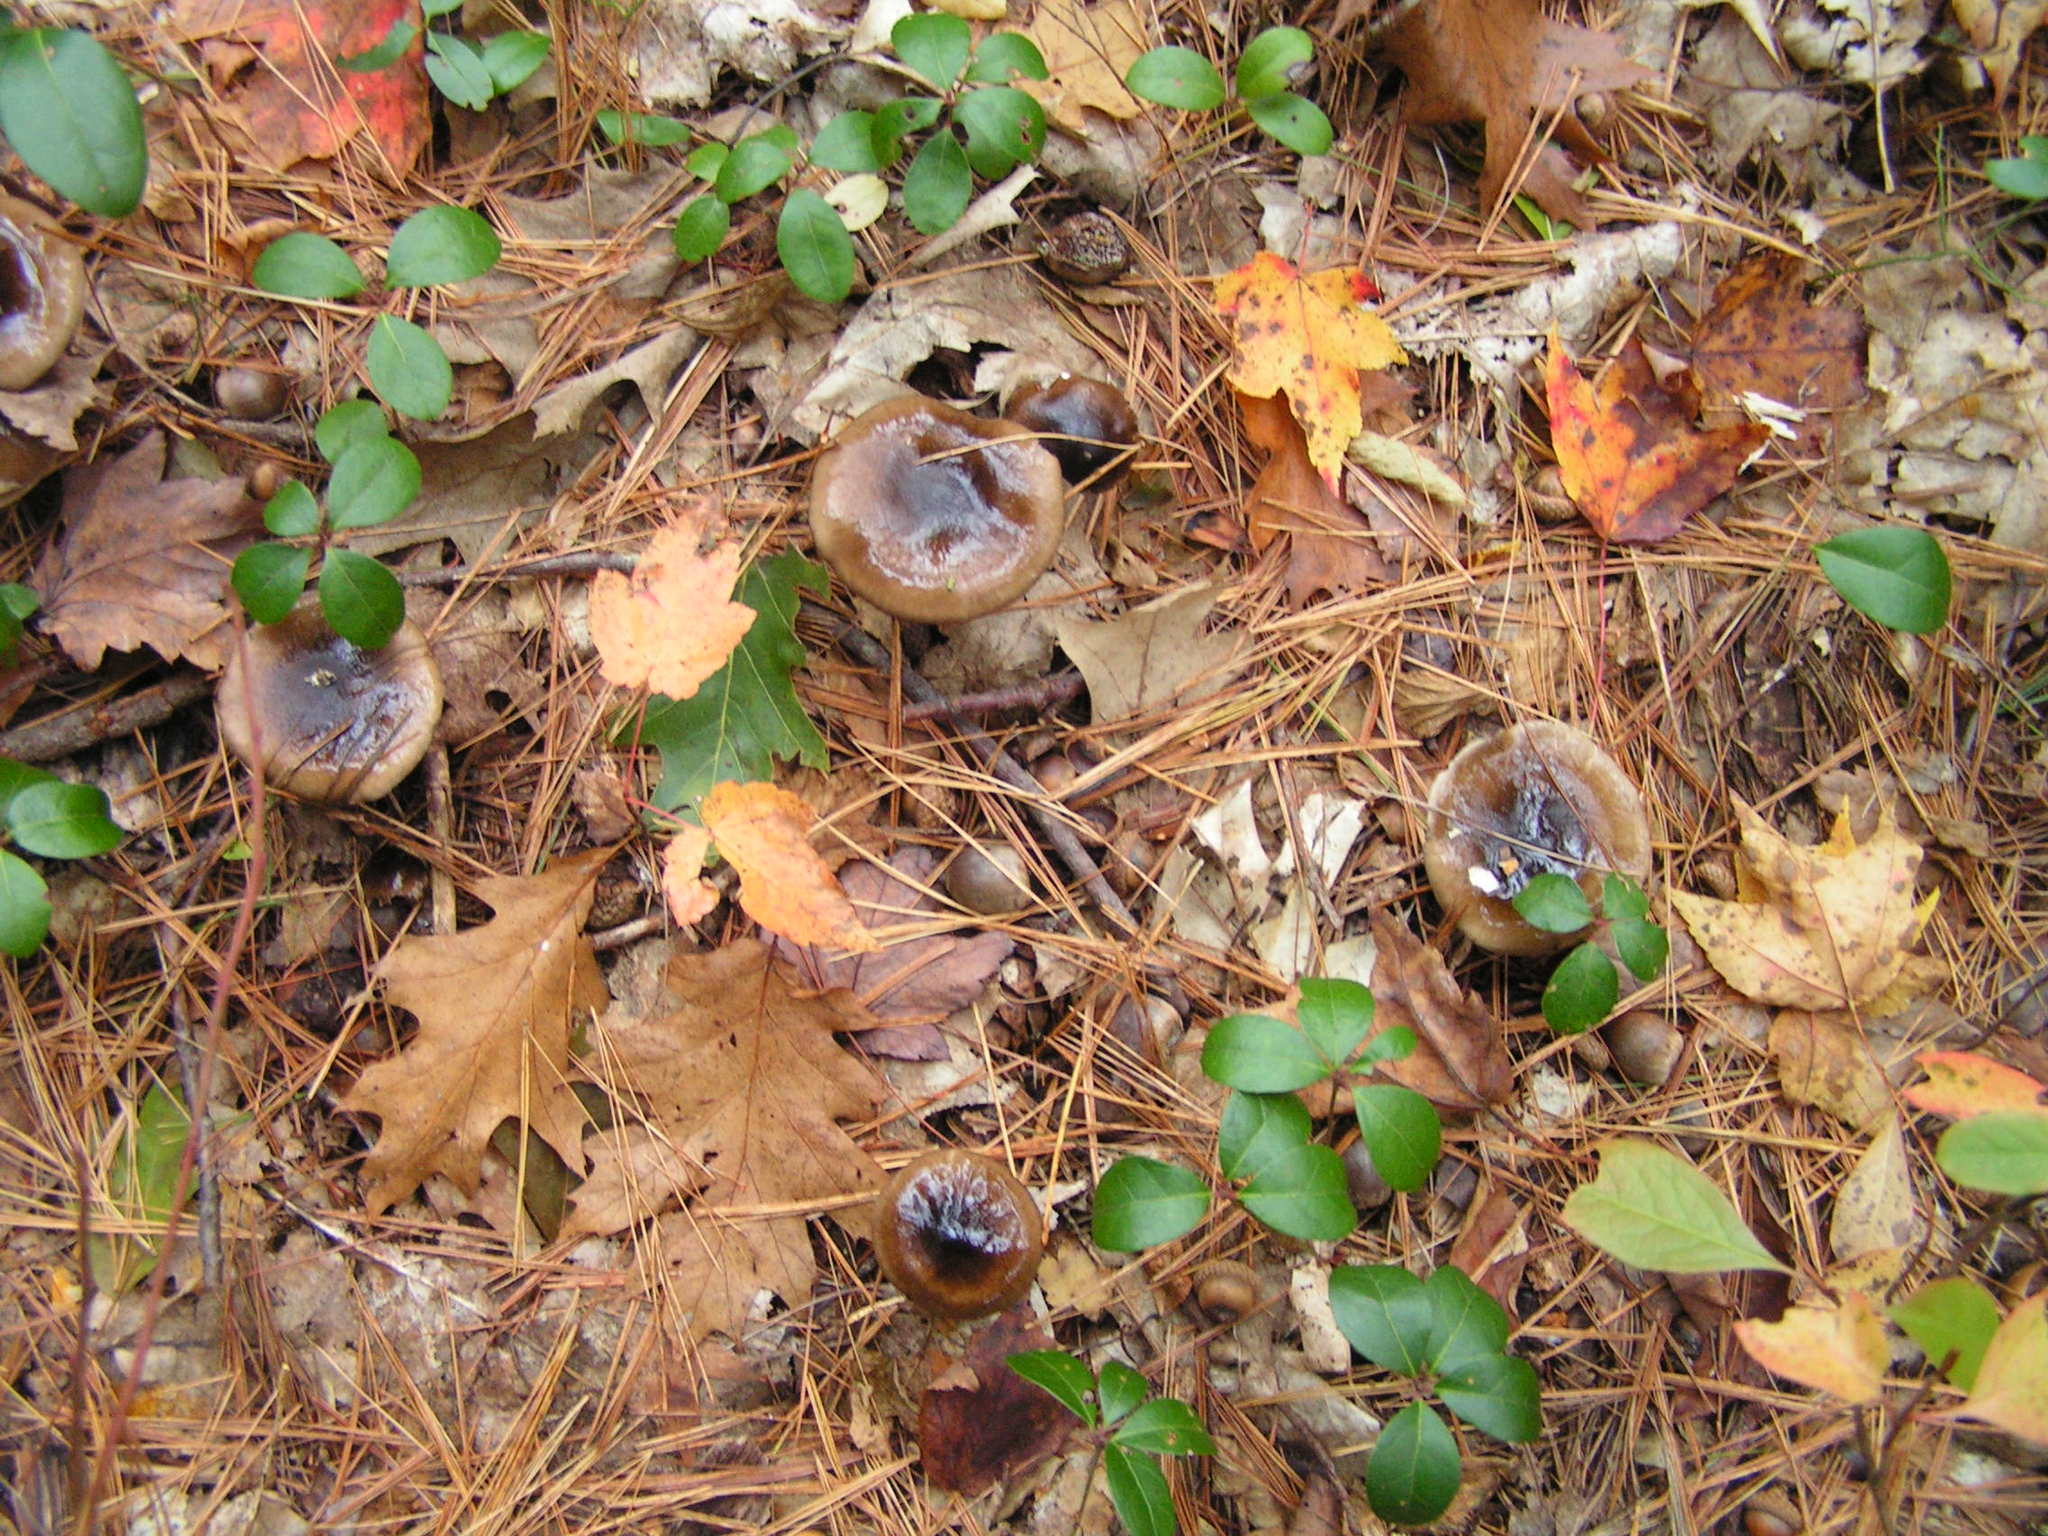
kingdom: Fungi
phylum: Basidiomycota
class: Agaricomycetes
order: Agaricales
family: Hygrophoraceae
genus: Hygrophorus
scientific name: Hygrophorus fuligineus
